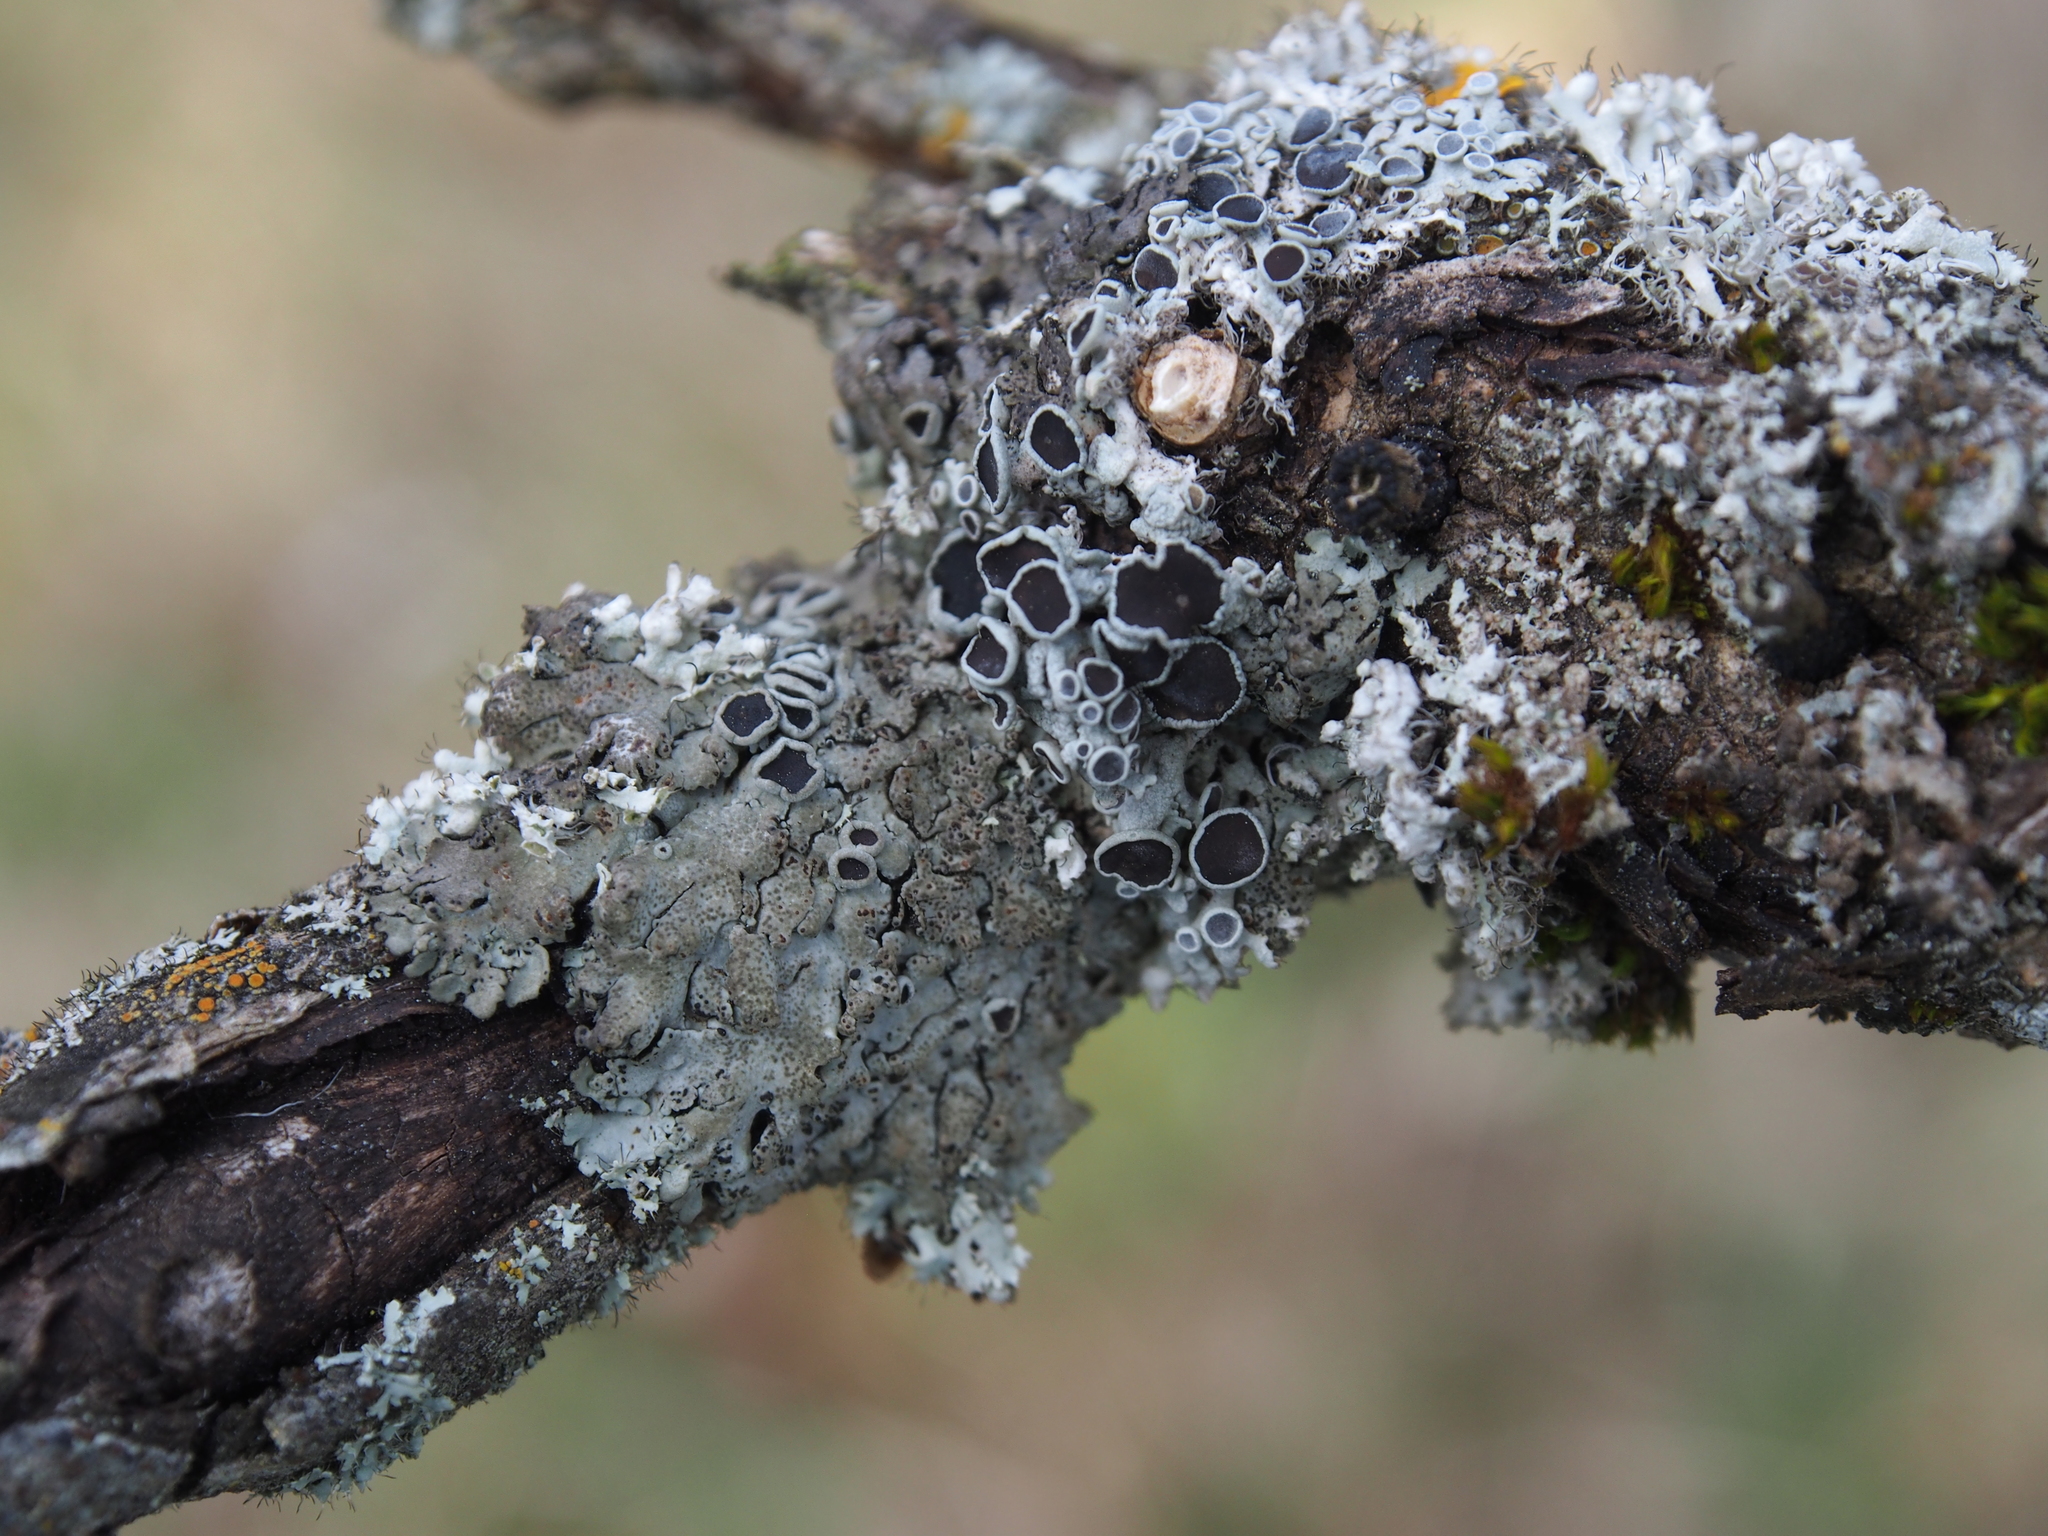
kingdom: Fungi
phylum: Ascomycota
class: Lecanoromycetes
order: Caliciales
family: Physciaceae
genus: Physcia
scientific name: Physcia aipolia
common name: Hoary rosette lichen
